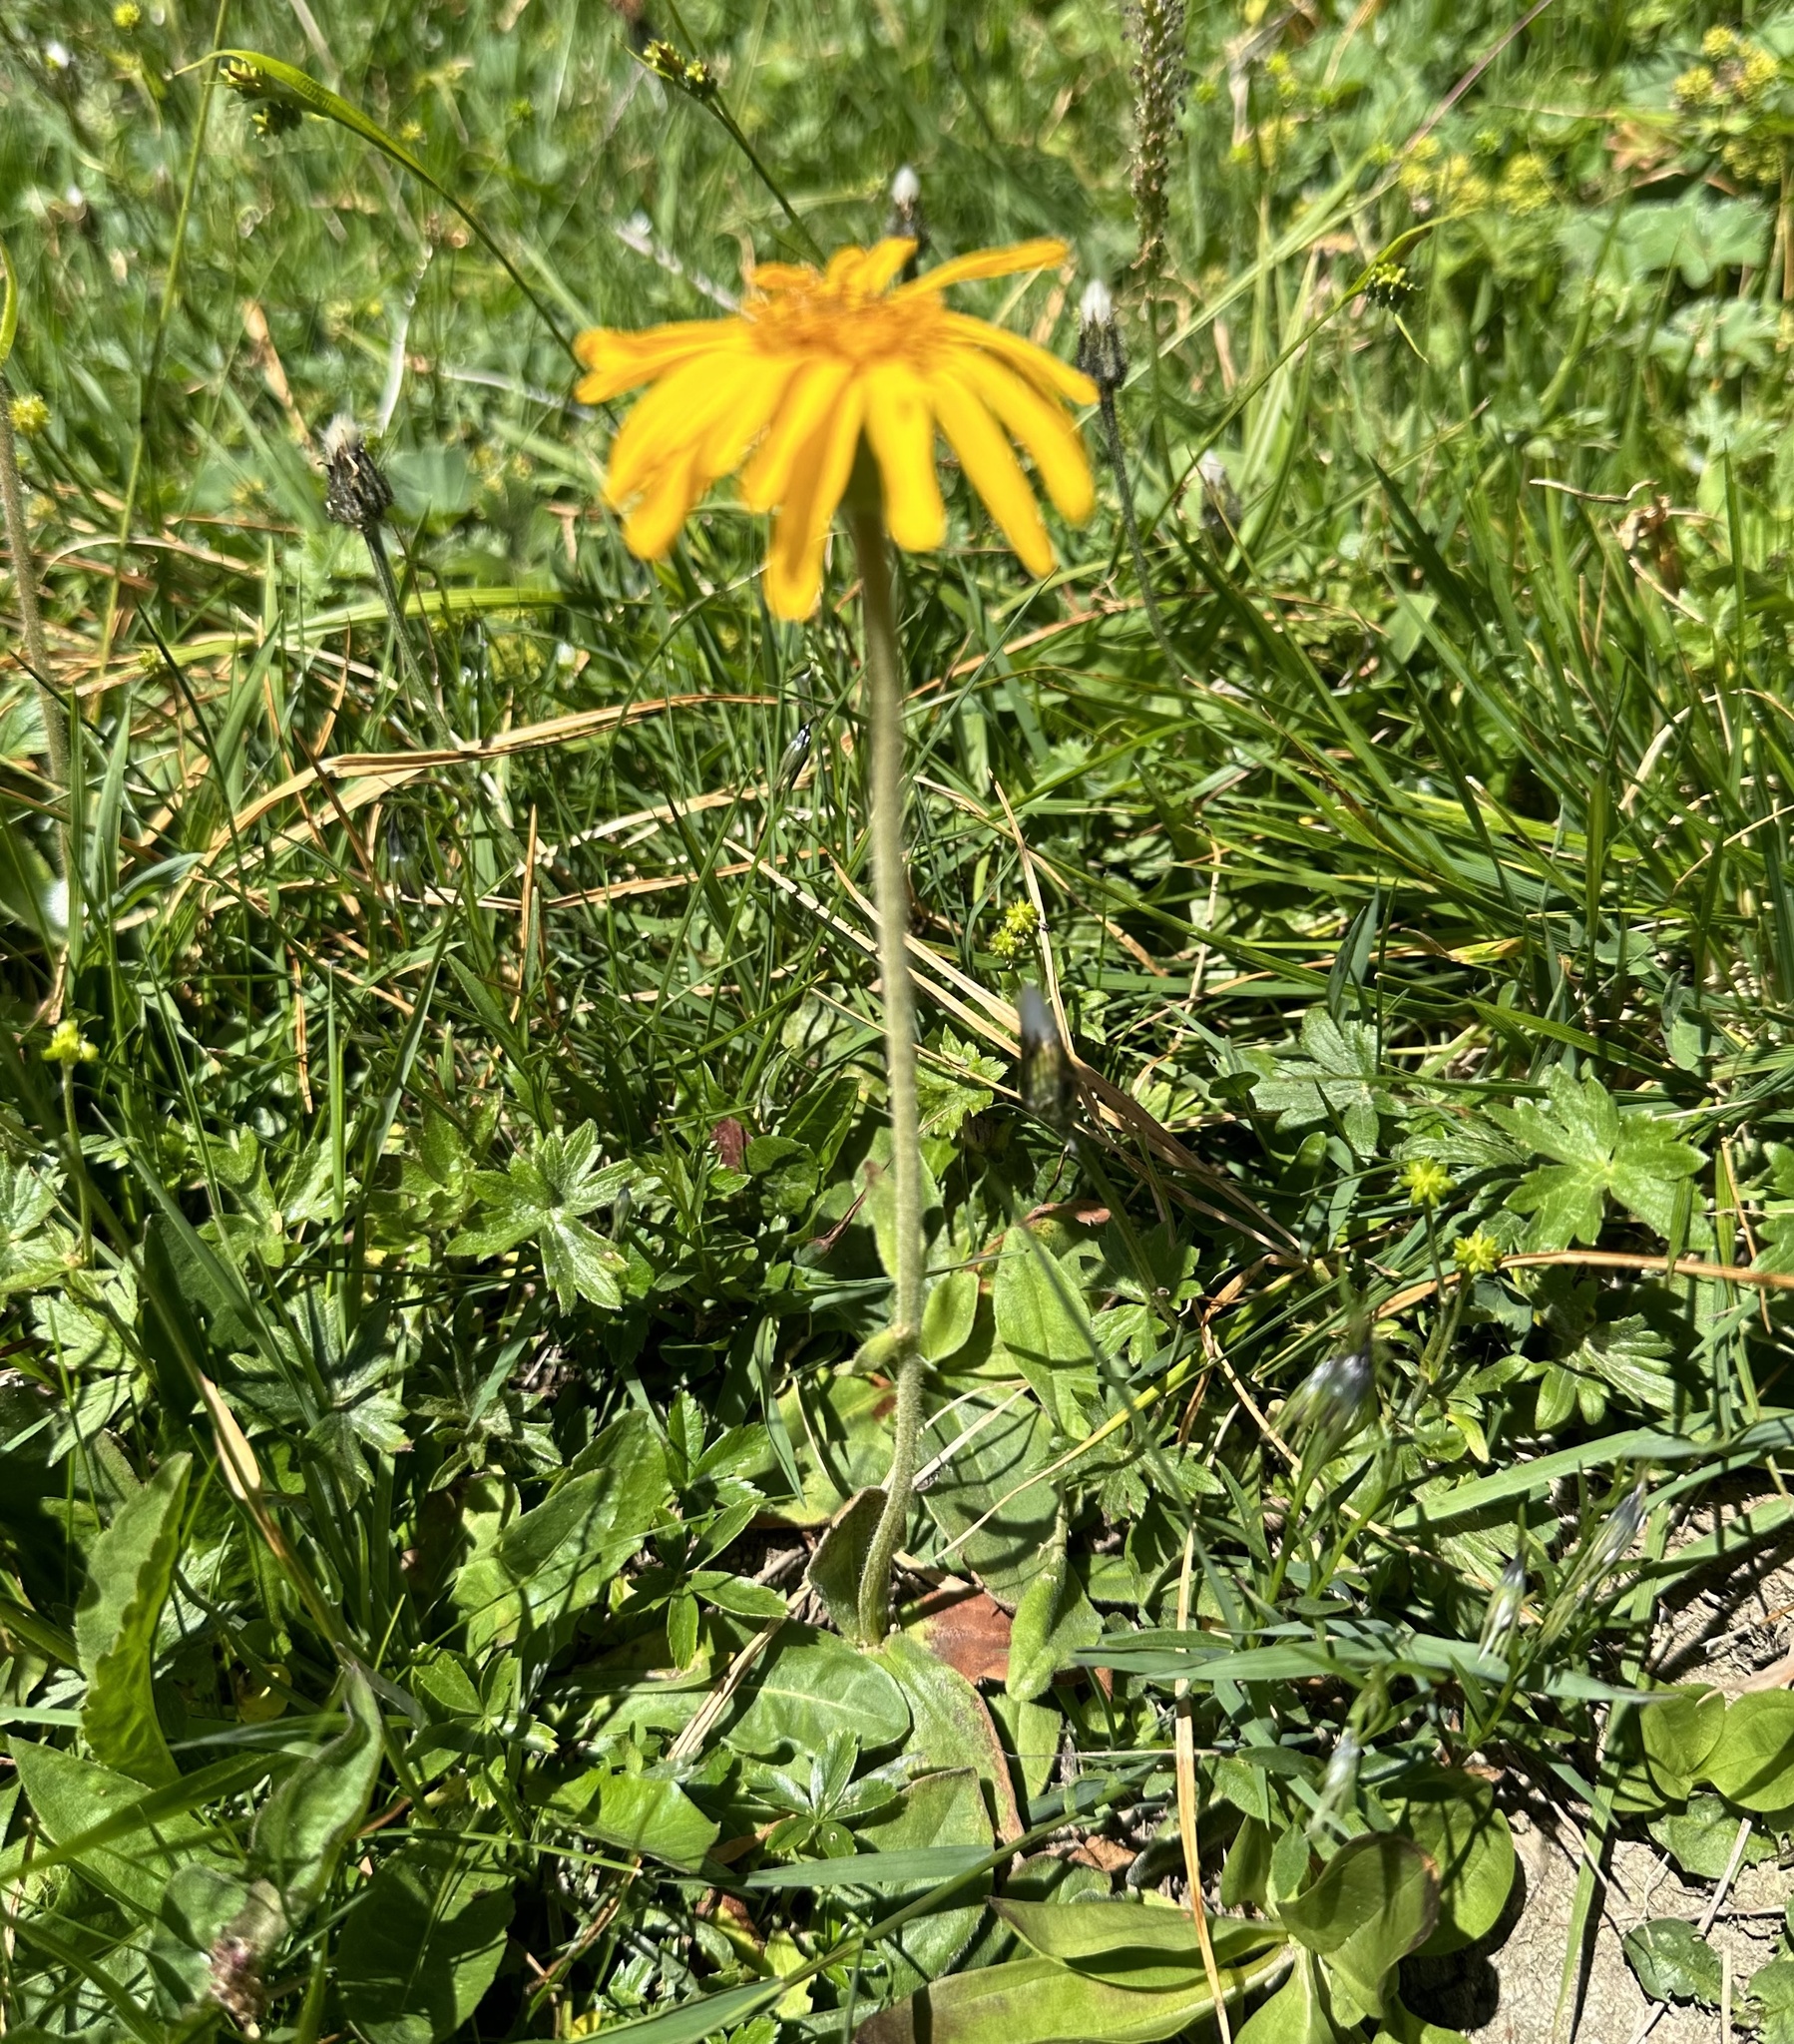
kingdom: Plantae
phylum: Tracheophyta
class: Magnoliopsida
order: Asterales
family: Asteraceae
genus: Arnica
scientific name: Arnica montana
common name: Leopard's bane
